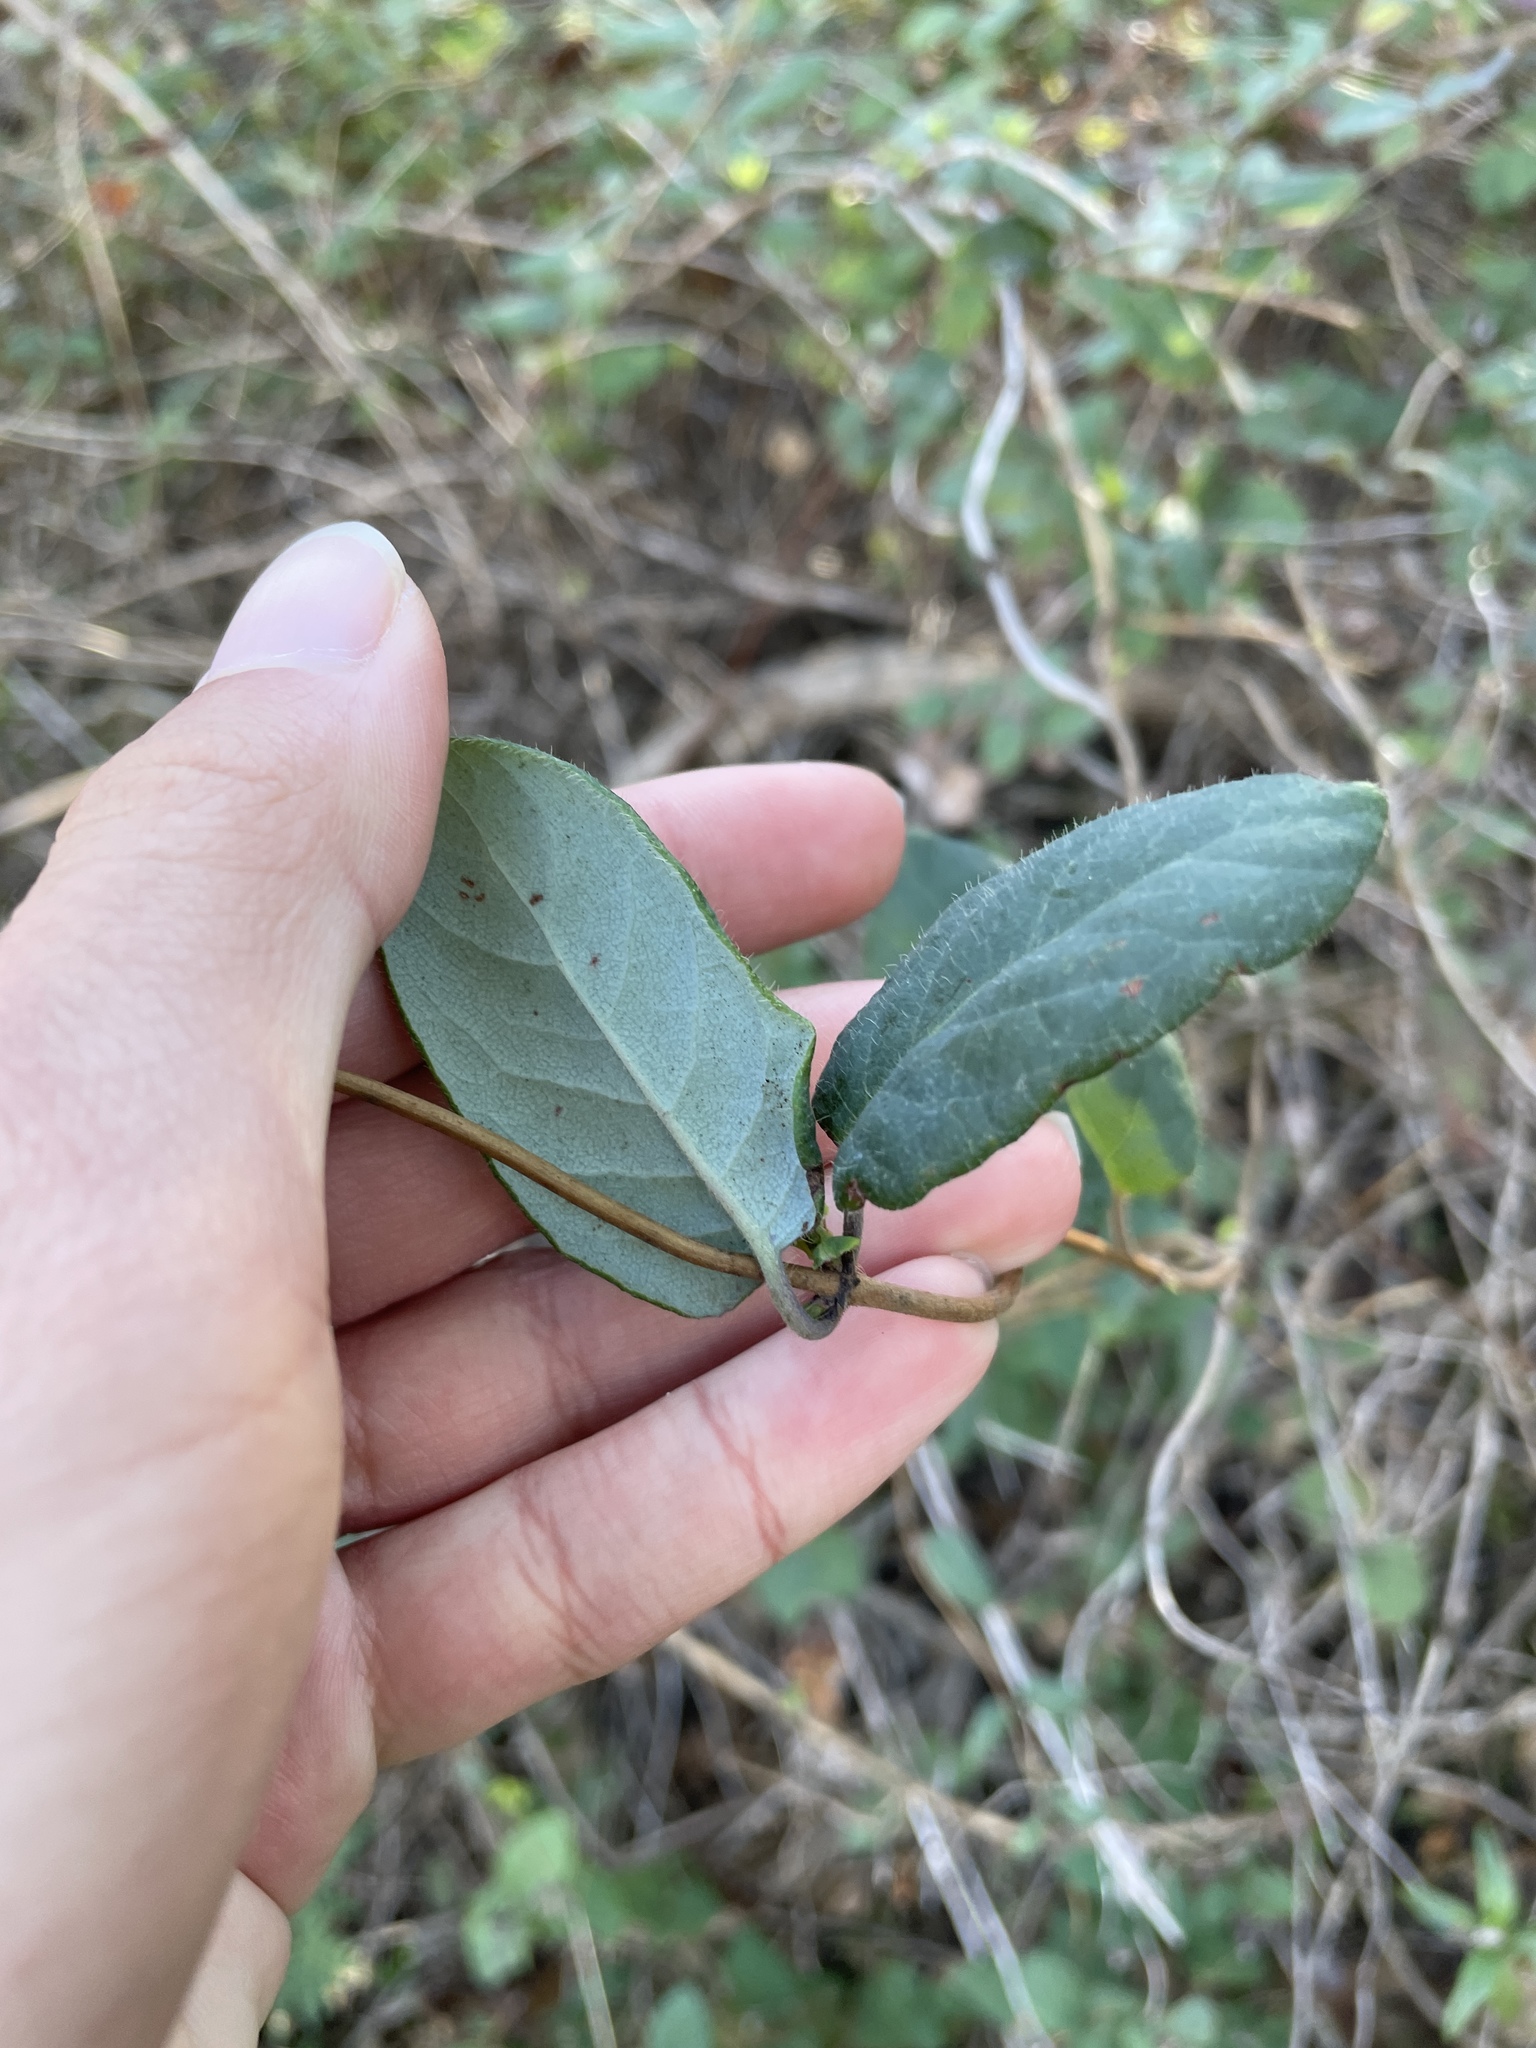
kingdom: Plantae
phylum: Tracheophyta
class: Magnoliopsida
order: Dipsacales
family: Caprifoliaceae
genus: Lonicera
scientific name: Lonicera hispidula
